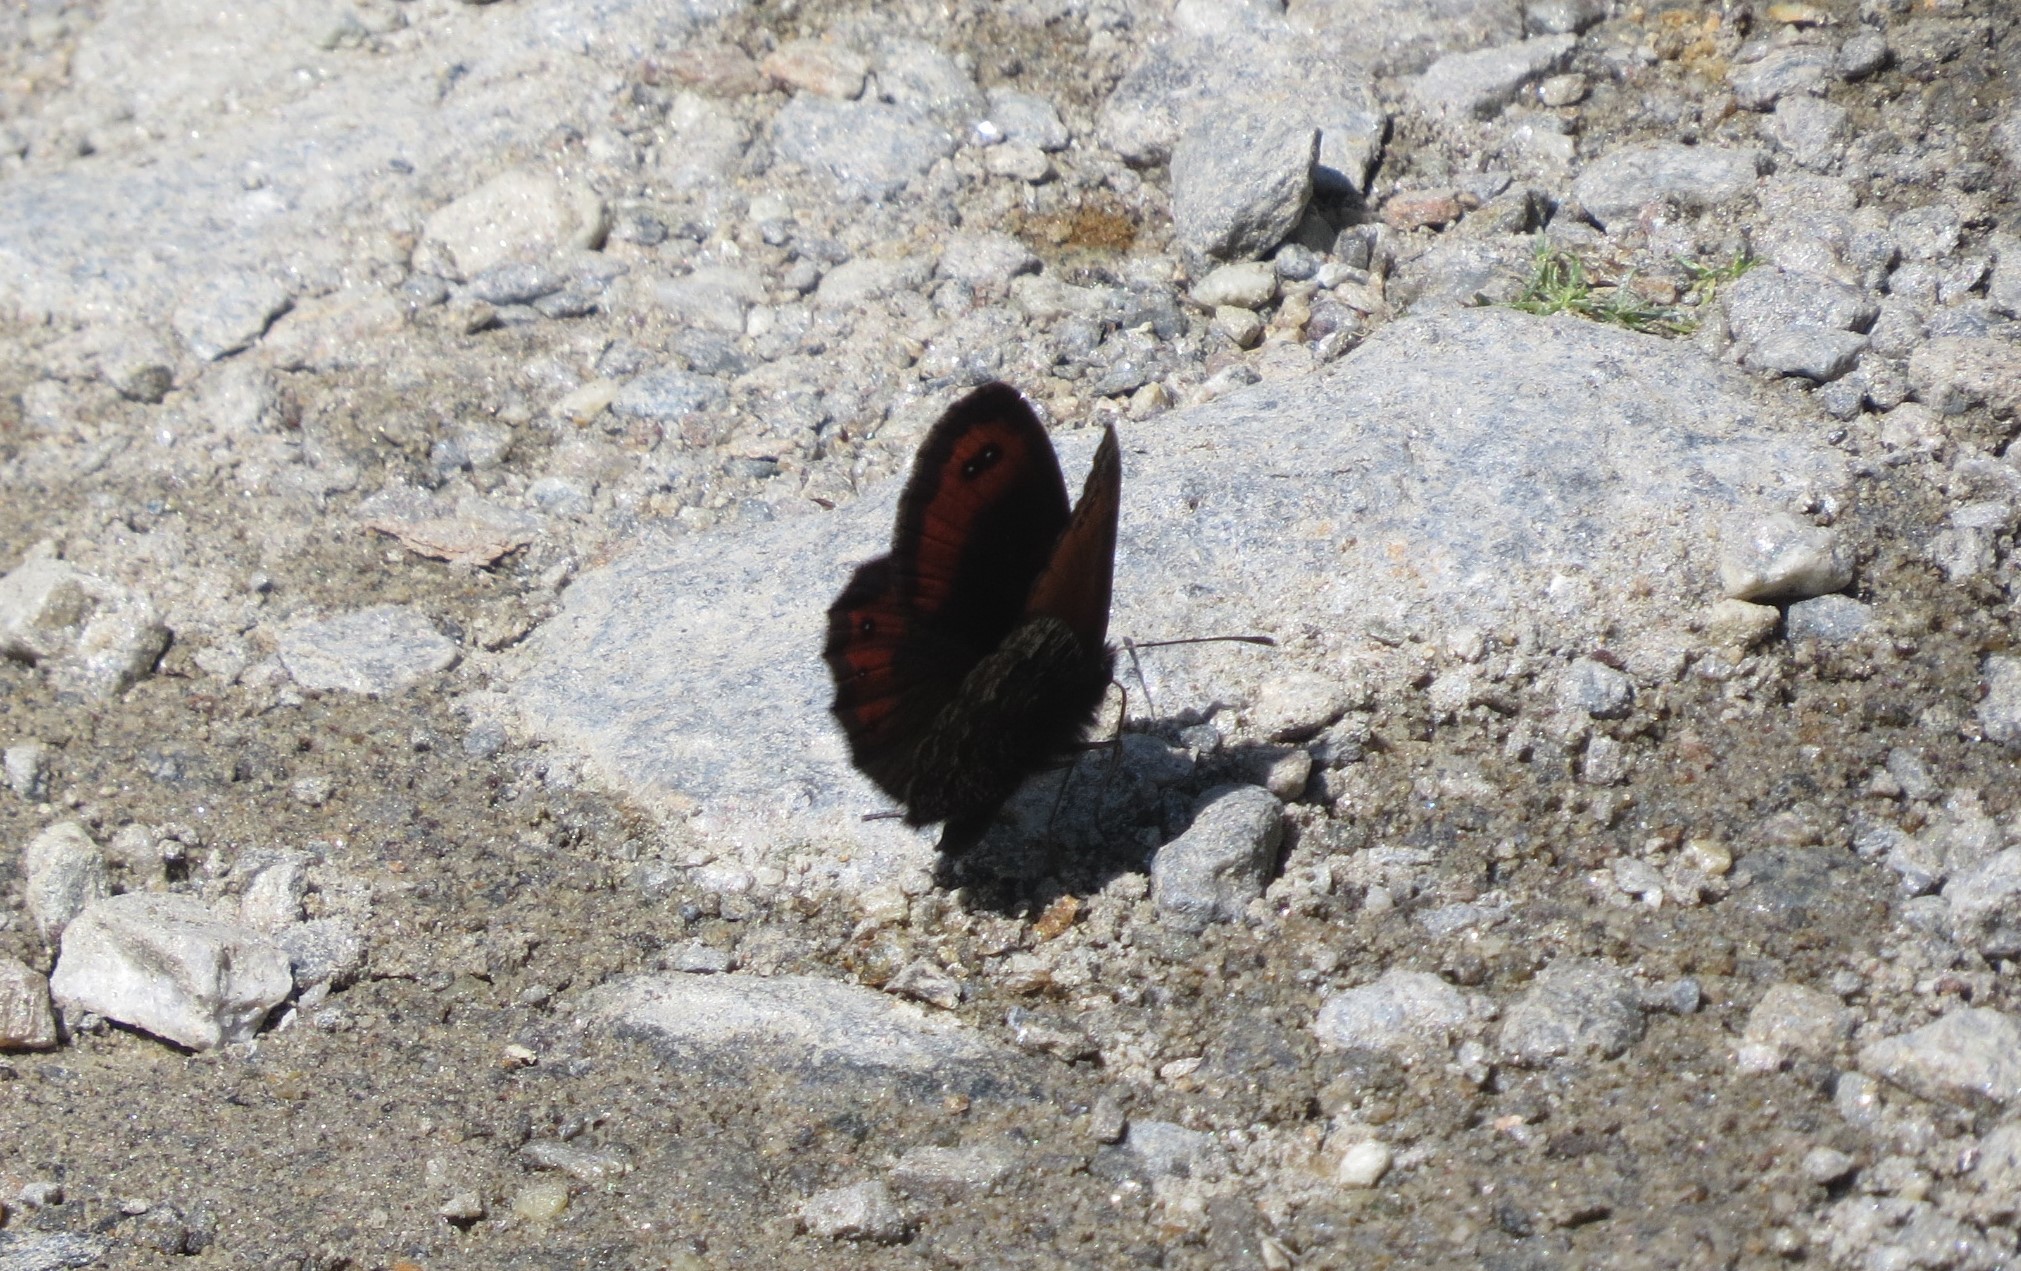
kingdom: Animalia
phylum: Arthropoda
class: Insecta
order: Lepidoptera
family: Nymphalidae
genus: Erebia
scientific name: Erebia montanus
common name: Marbled ringlet
